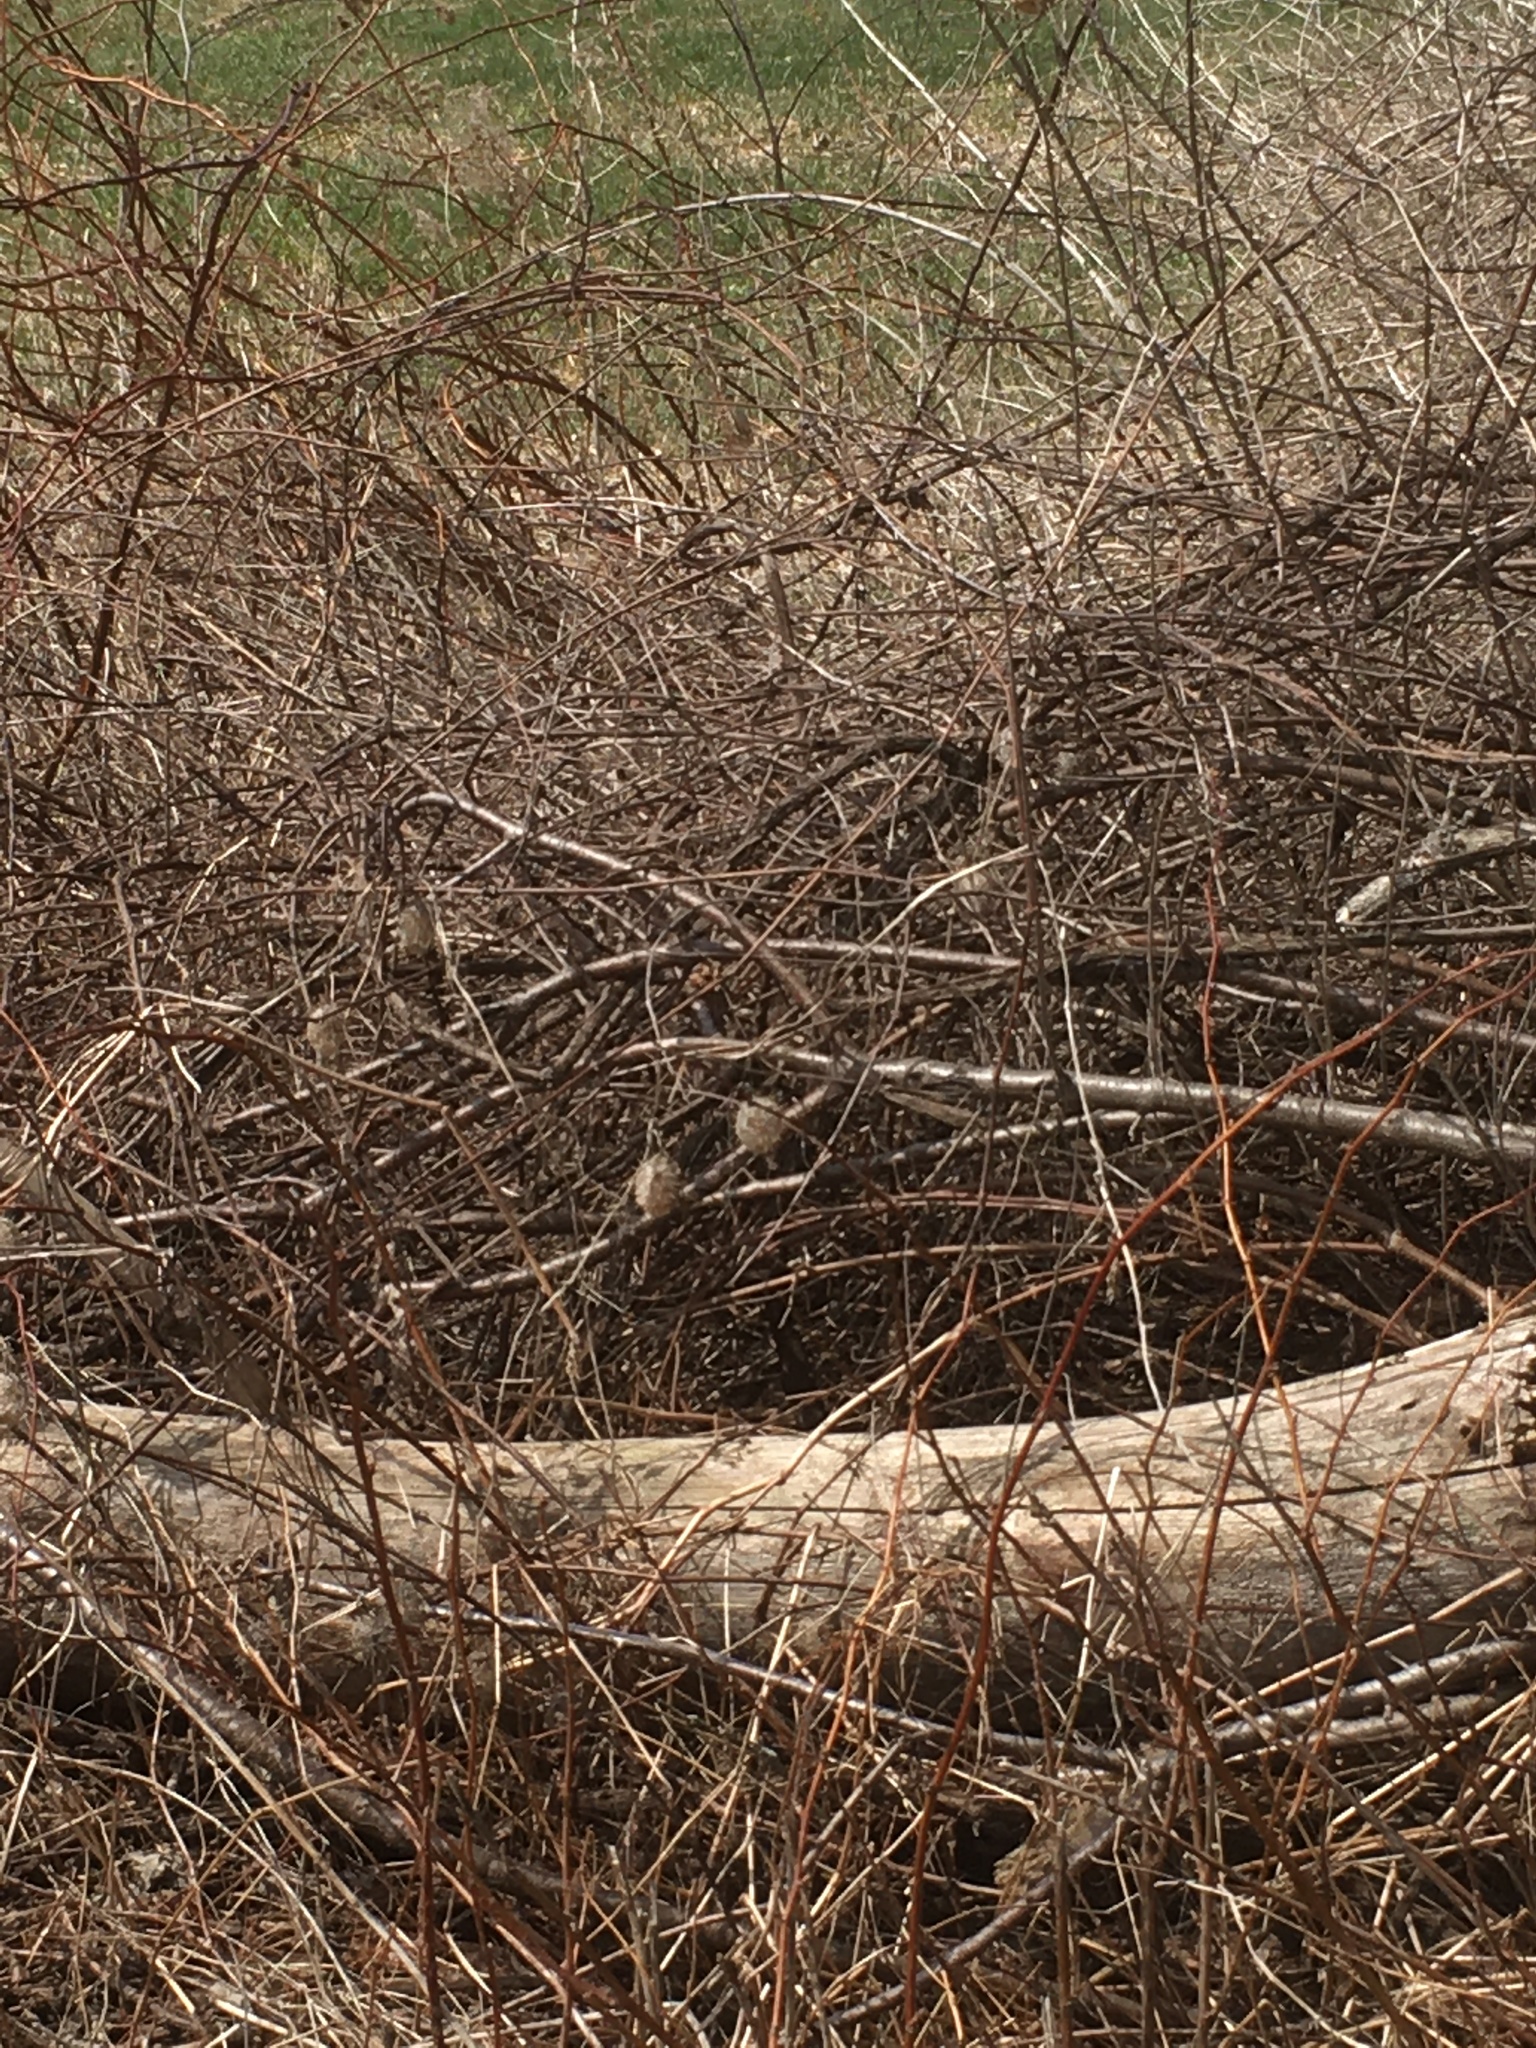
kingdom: Plantae
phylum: Tracheophyta
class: Magnoliopsida
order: Cucurbitales
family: Cucurbitaceae
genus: Echinocystis
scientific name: Echinocystis lobata
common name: Wild cucumber
